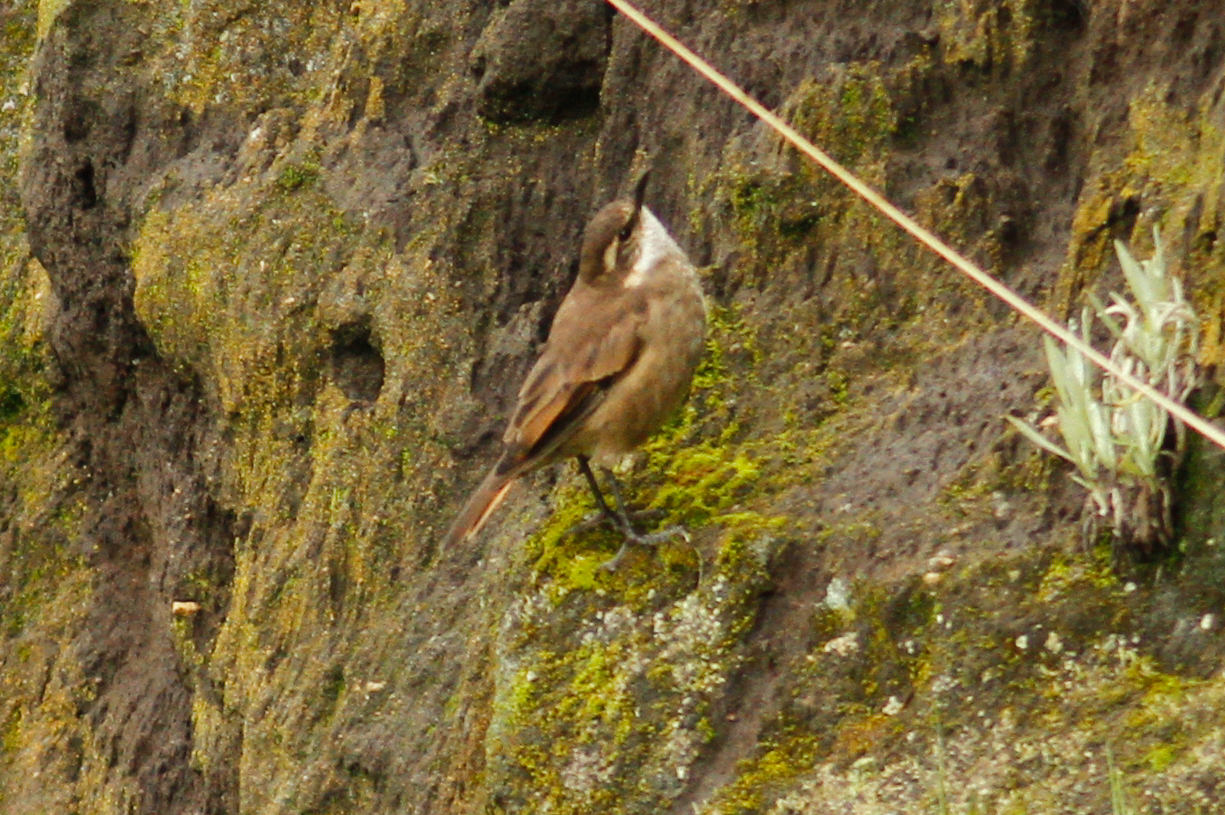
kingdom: Animalia
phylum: Chordata
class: Aves
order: Passeriformes
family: Furnariidae
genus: Cinclodes
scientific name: Cinclodes albidiventris
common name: Chestnut-winged cinclodes
